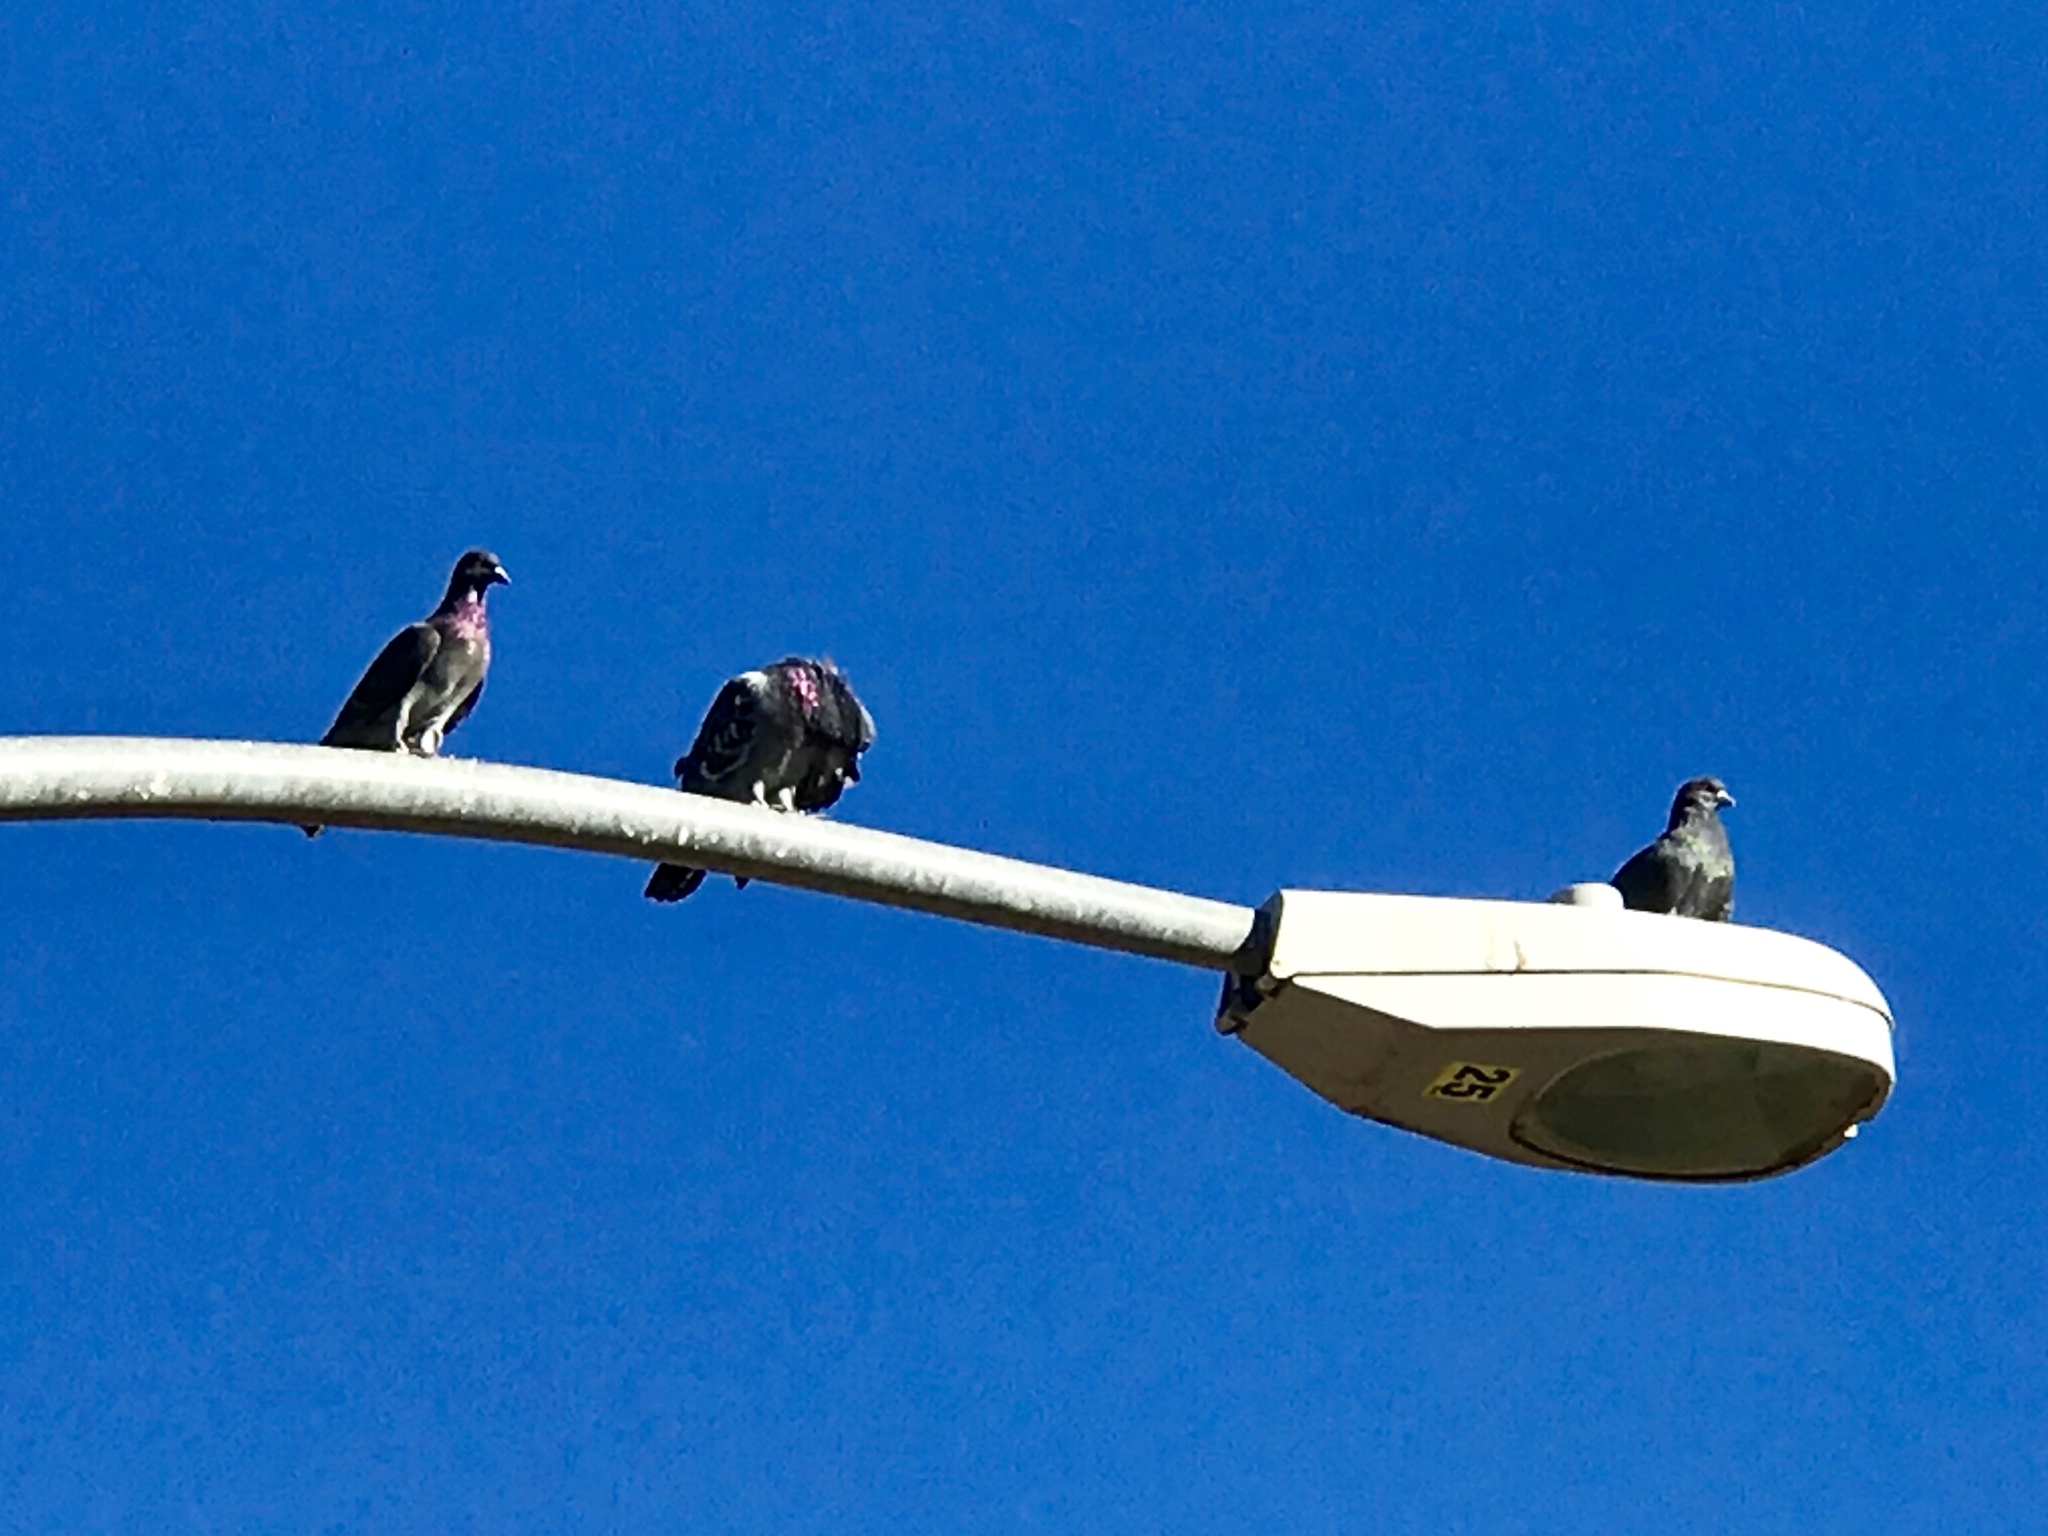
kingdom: Animalia
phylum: Chordata
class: Aves
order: Columbiformes
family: Columbidae
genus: Columba
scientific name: Columba livia
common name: Rock pigeon
